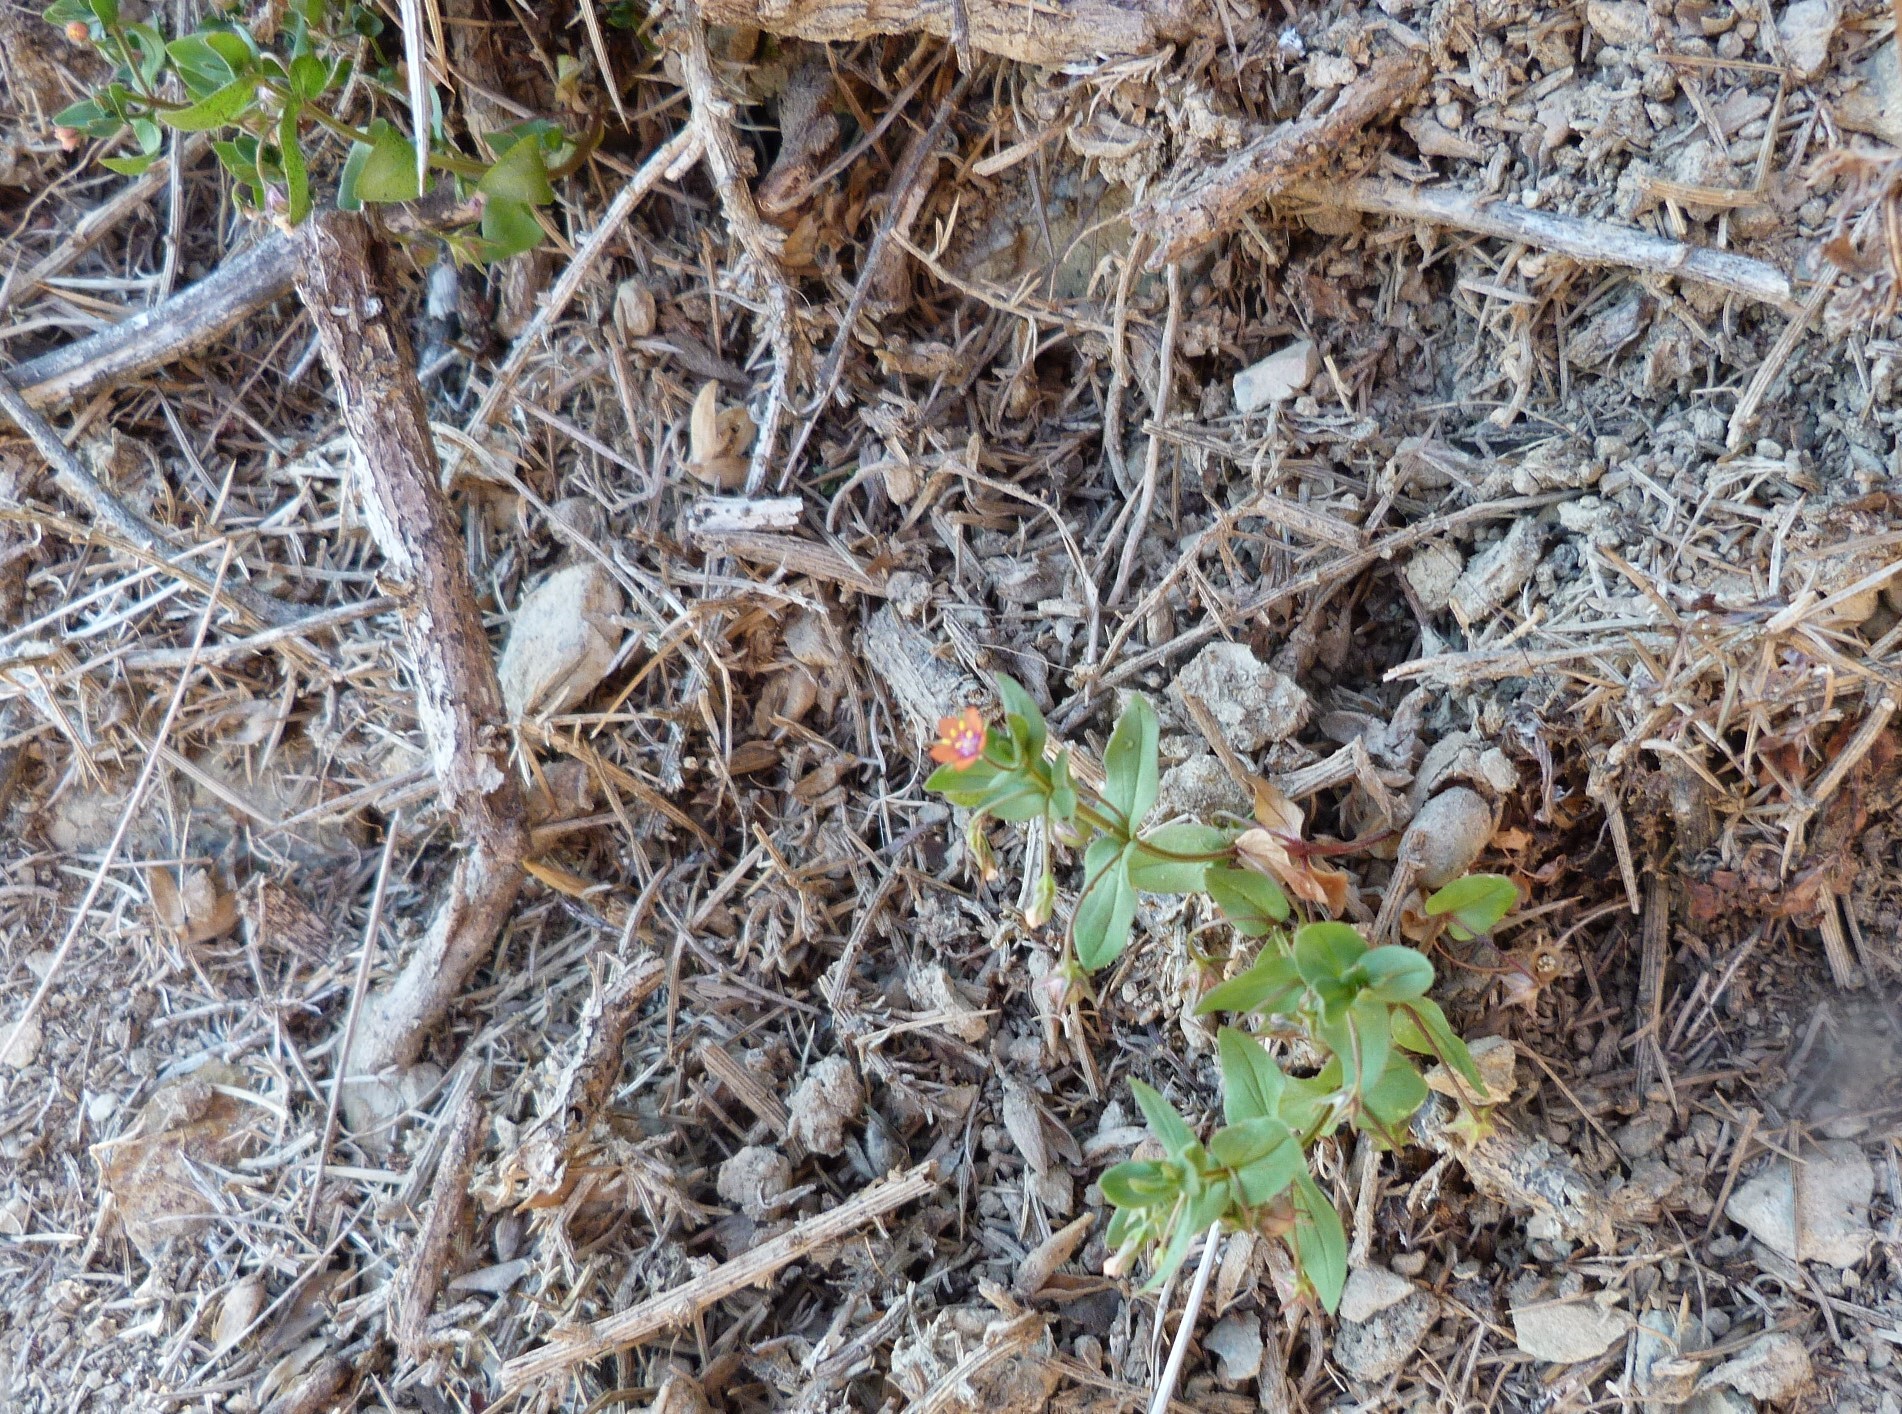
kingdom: Plantae
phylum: Tracheophyta
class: Magnoliopsida
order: Ericales
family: Primulaceae
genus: Lysimachia
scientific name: Lysimachia arvensis
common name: Scarlet pimpernel
